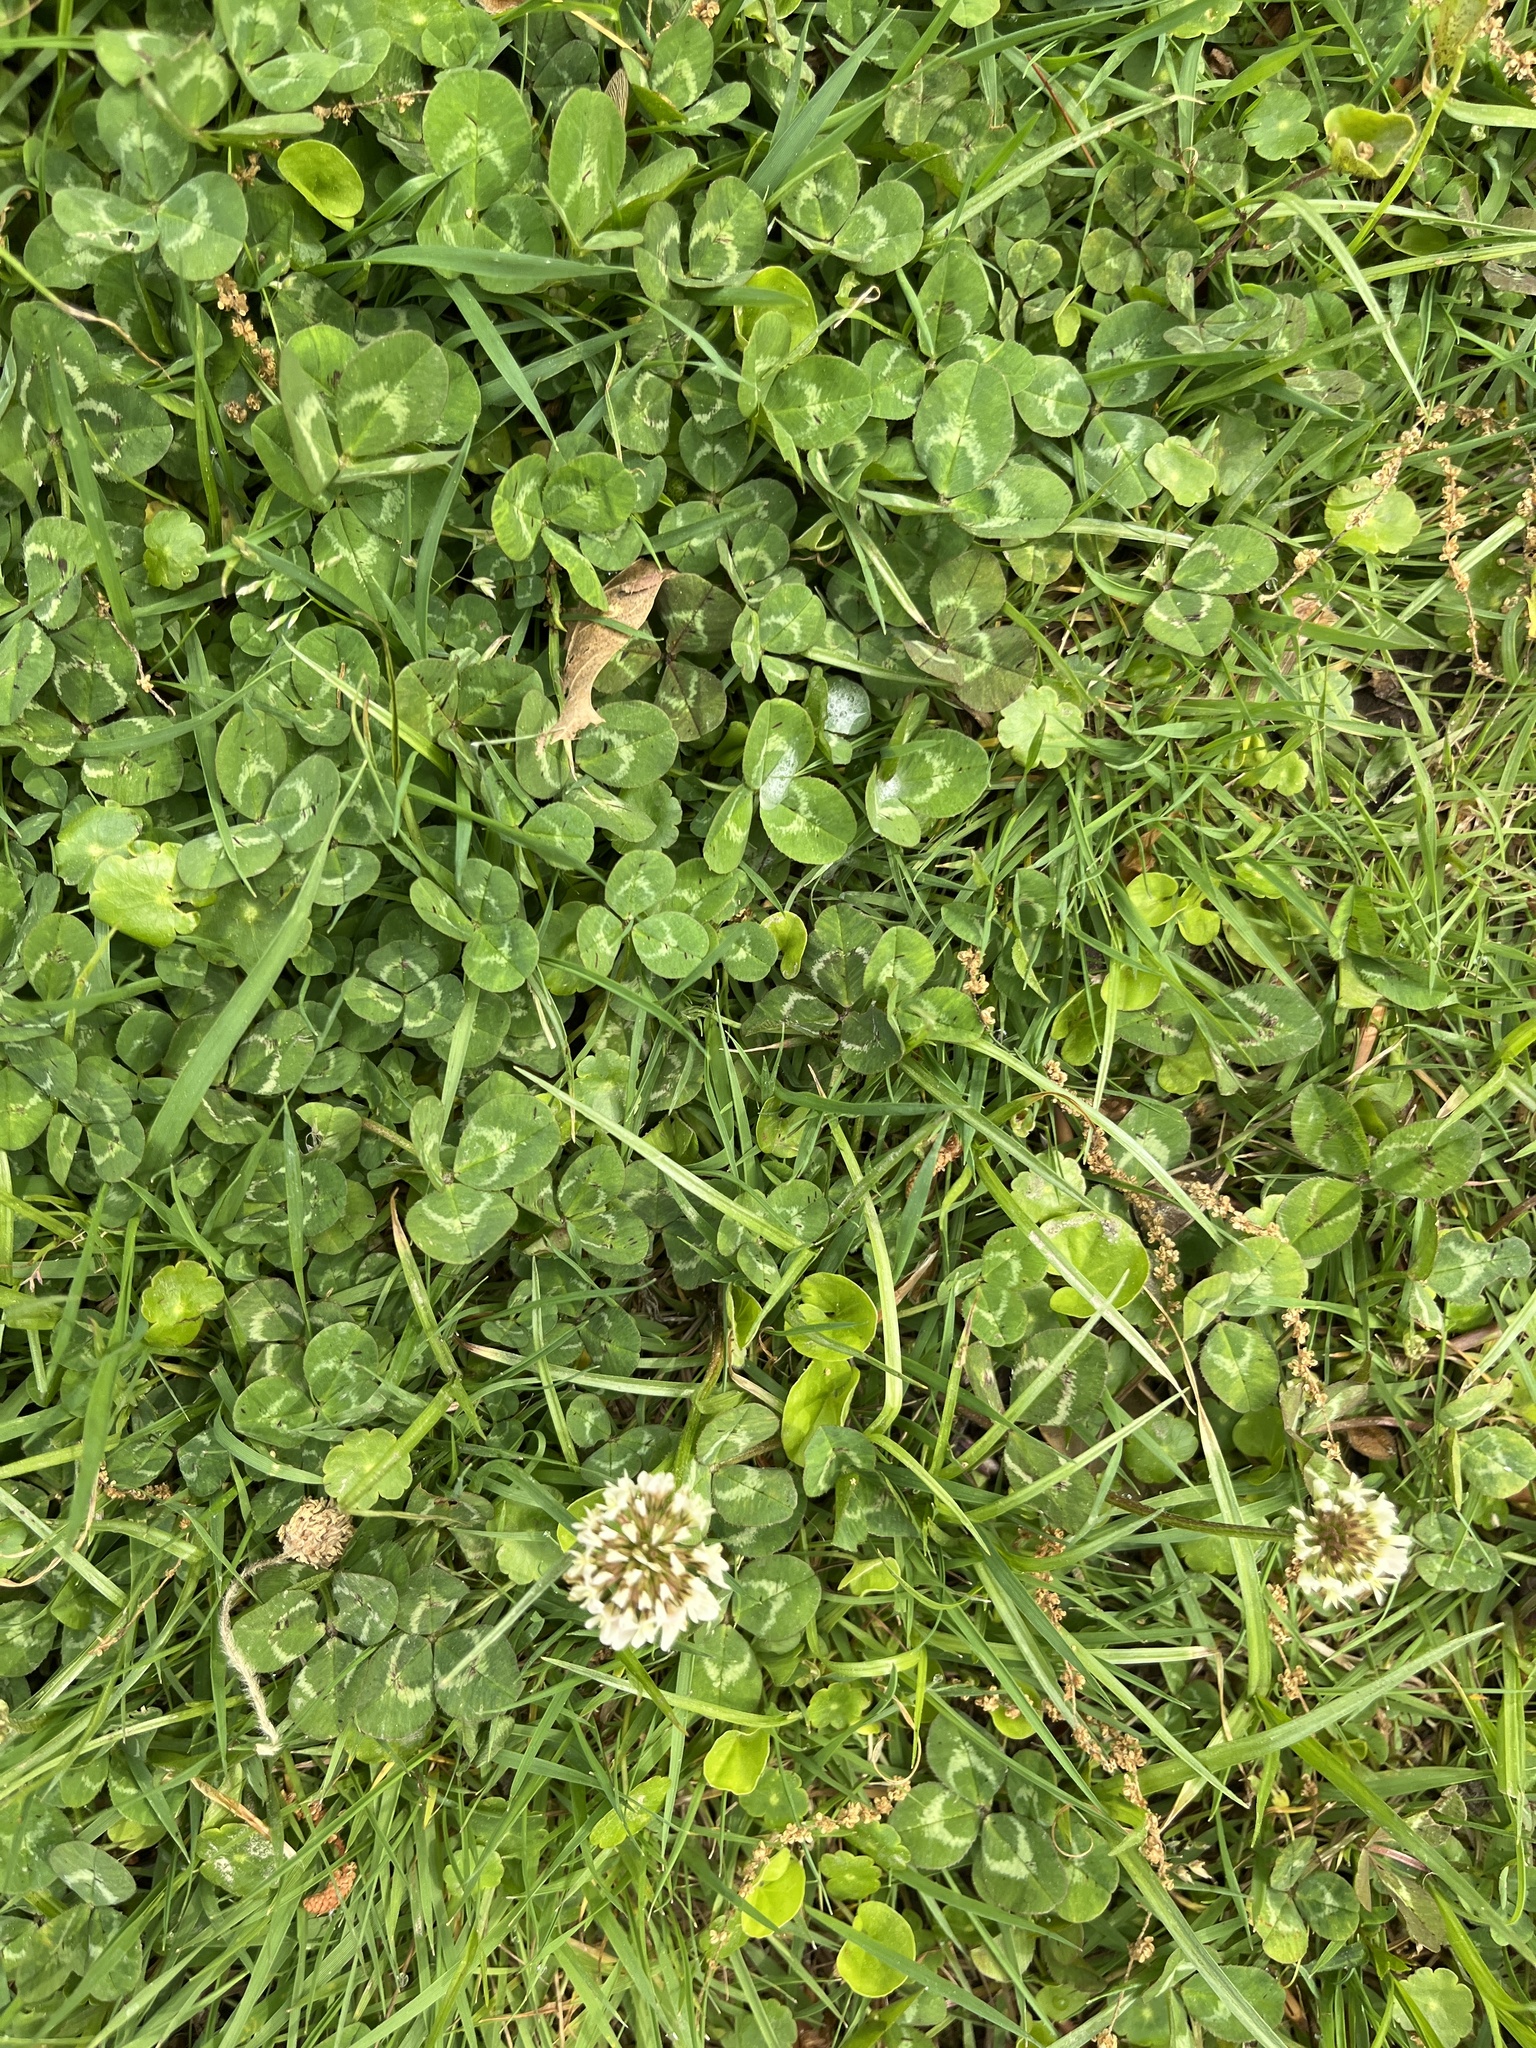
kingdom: Plantae
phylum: Tracheophyta
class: Magnoliopsida
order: Fabales
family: Fabaceae
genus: Trifolium
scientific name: Trifolium repens
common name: White clover
